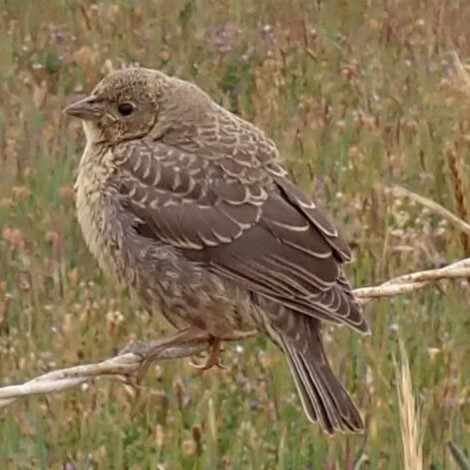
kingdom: Animalia
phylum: Chordata
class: Aves
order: Passeriformes
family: Icteridae
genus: Molothrus
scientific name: Molothrus ater
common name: Brown-headed cowbird
